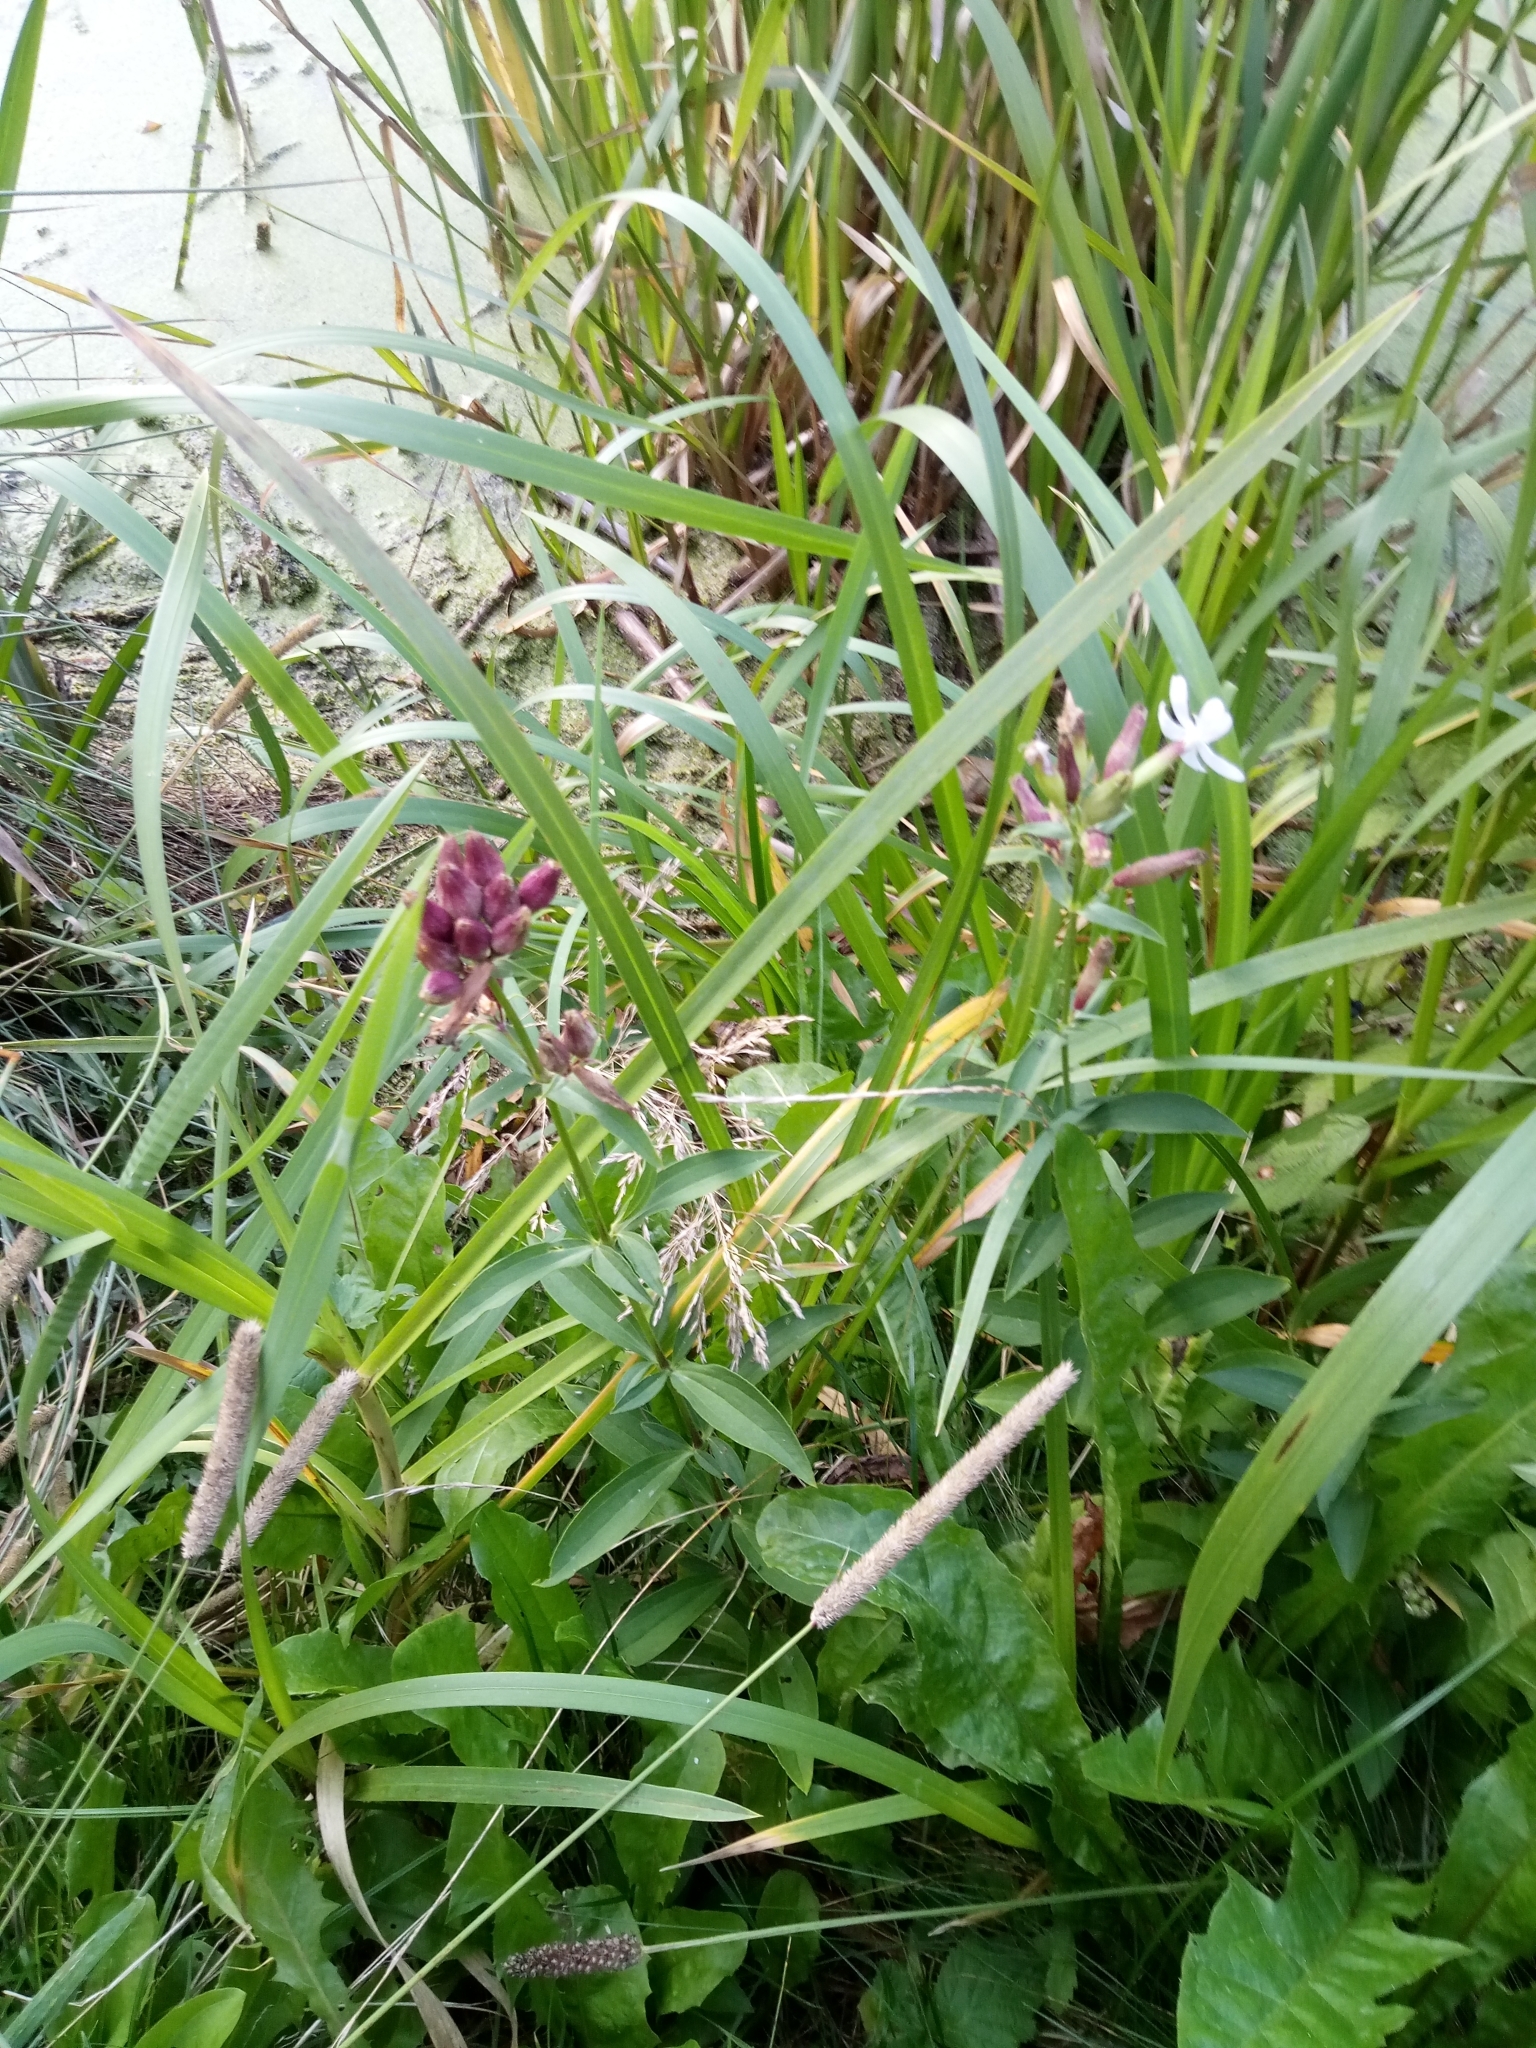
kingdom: Plantae
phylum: Tracheophyta
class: Magnoliopsida
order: Caryophyllales
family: Caryophyllaceae
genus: Saponaria
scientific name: Saponaria officinalis
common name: Soapwort
